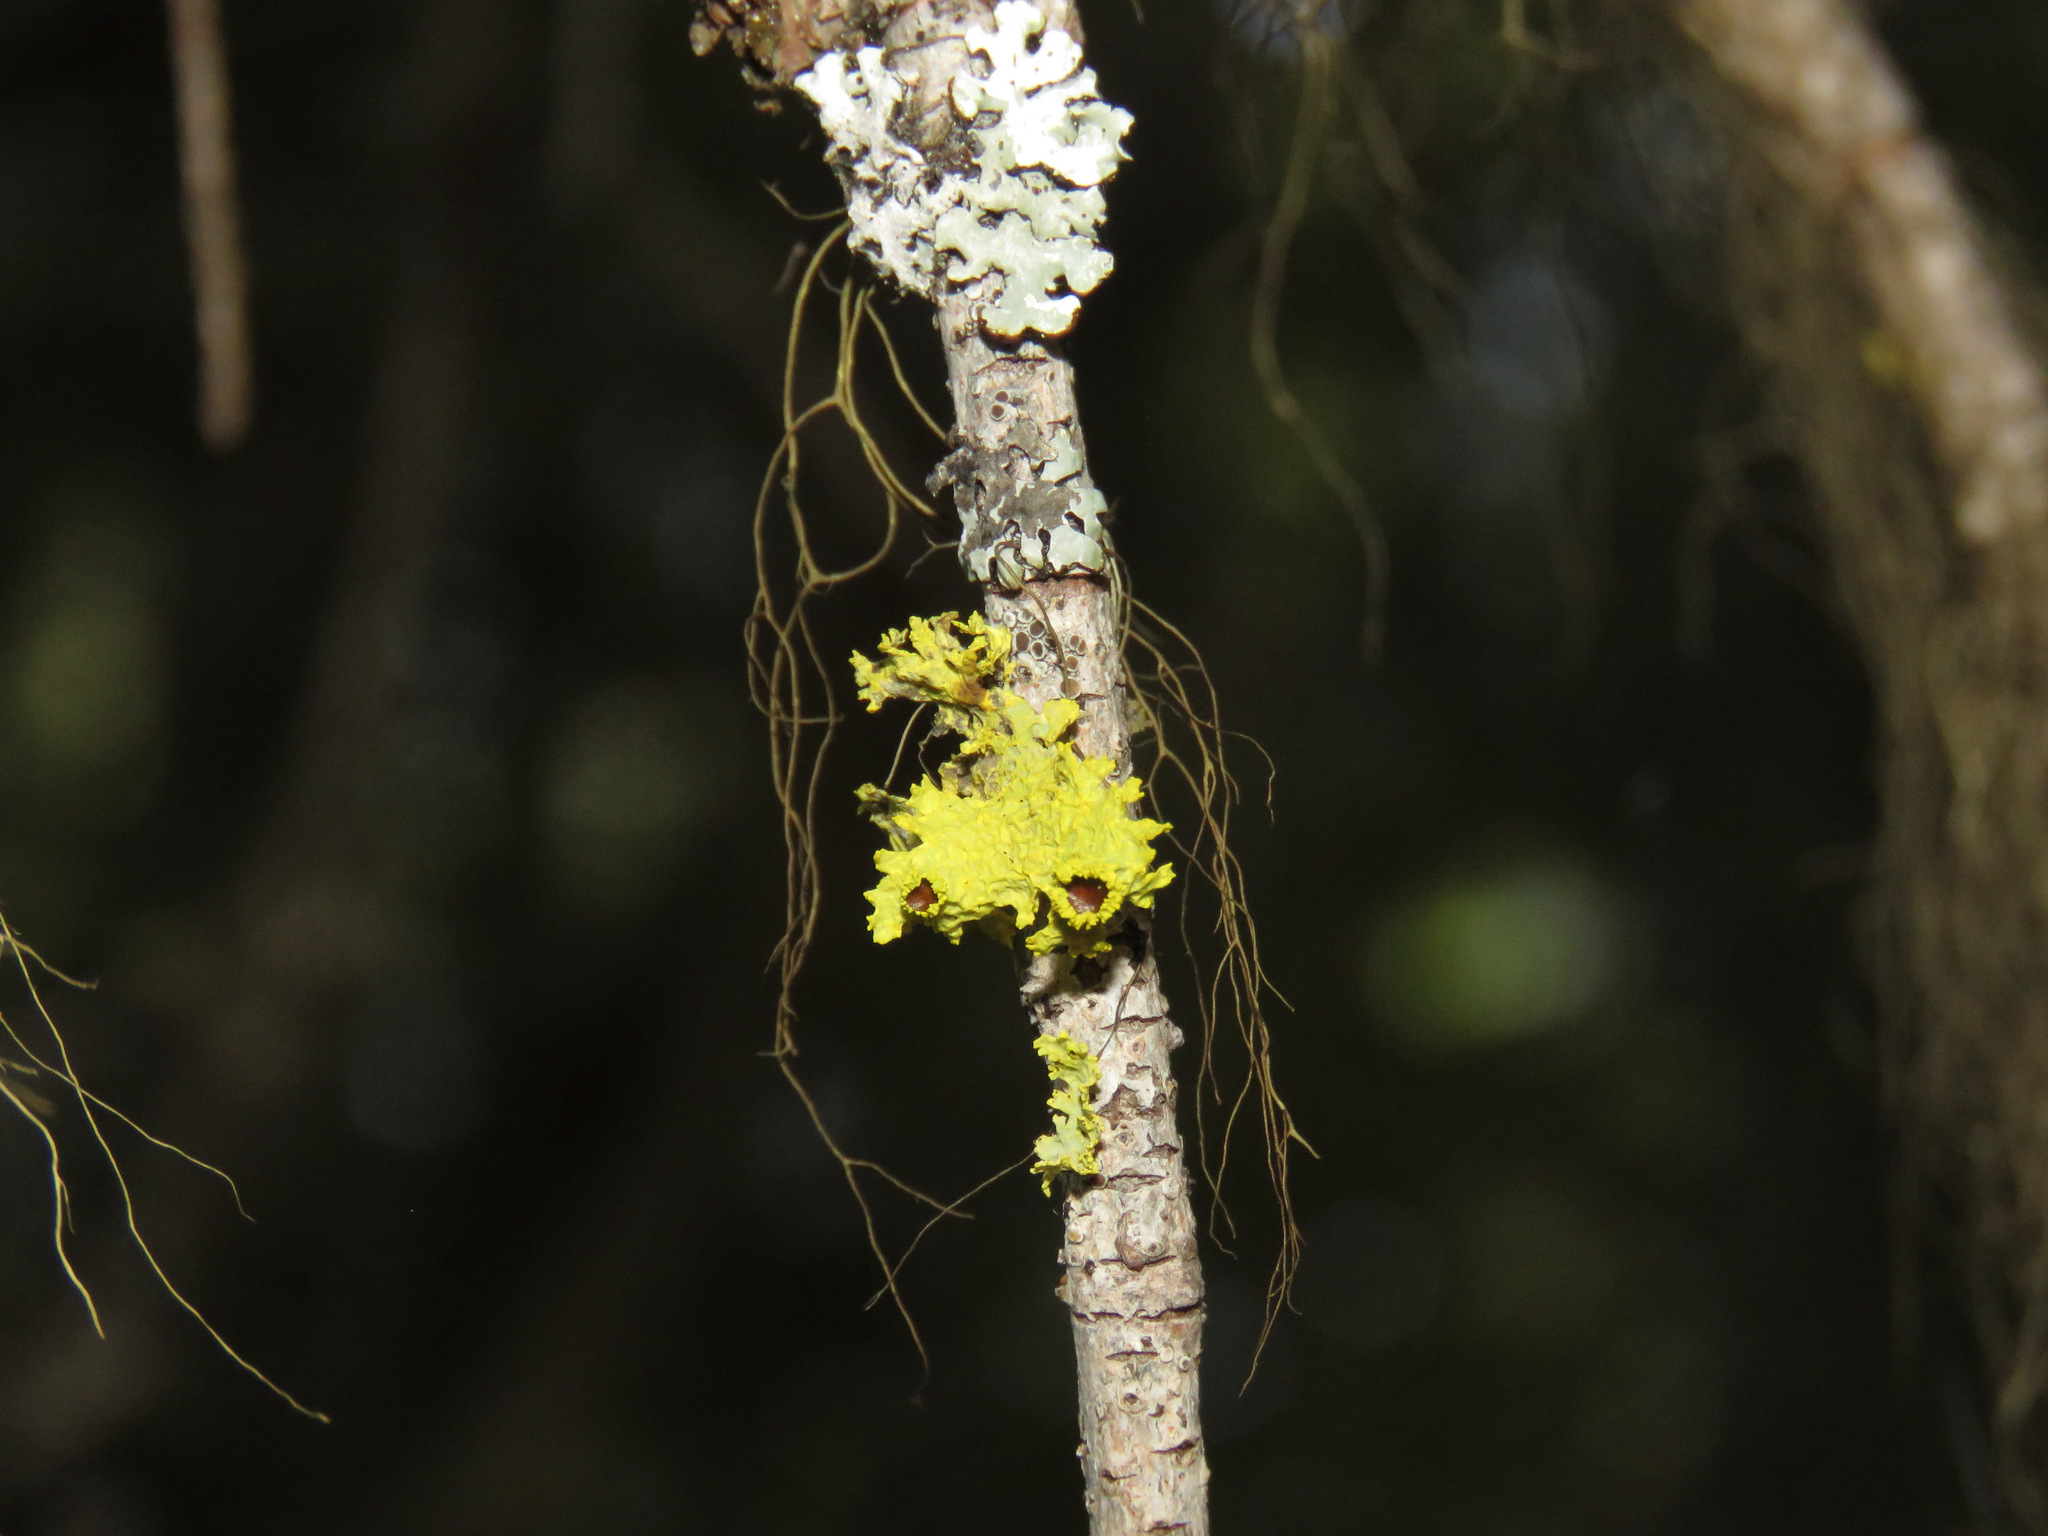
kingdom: Fungi
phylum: Ascomycota
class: Lecanoromycetes
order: Lecanorales
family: Parmeliaceae
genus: Vulpicida
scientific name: Vulpicida canadensis
